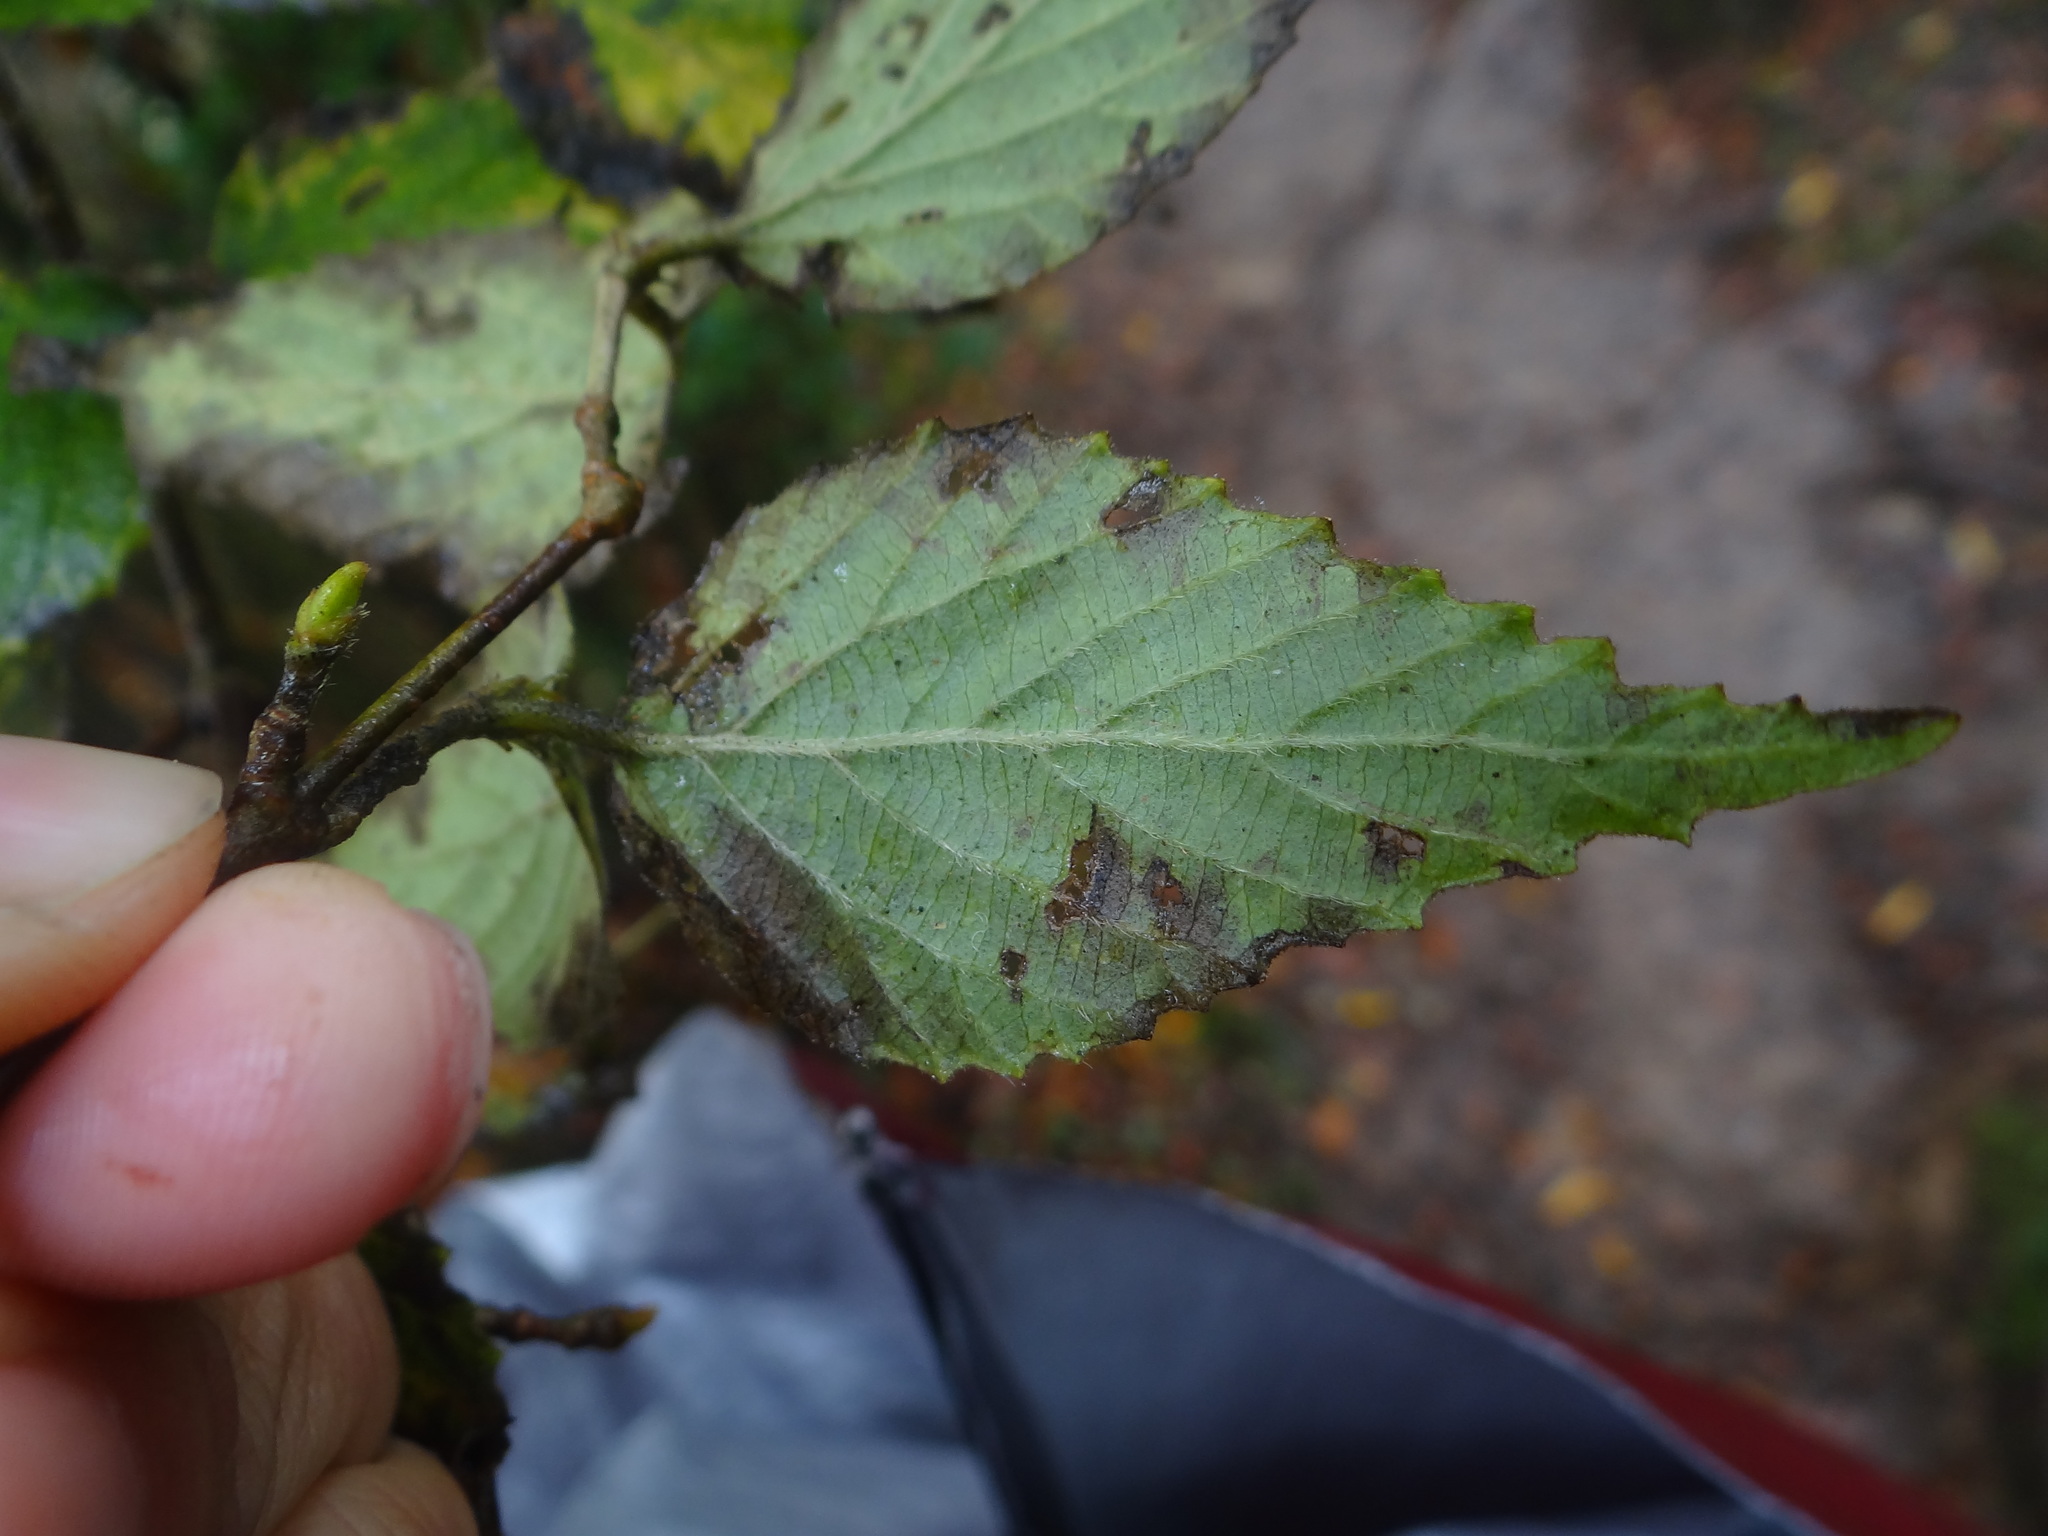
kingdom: Plantae
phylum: Tracheophyta
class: Magnoliopsida
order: Dipsacales
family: Viburnaceae
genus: Viburnum
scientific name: Viburnum luzonicum
